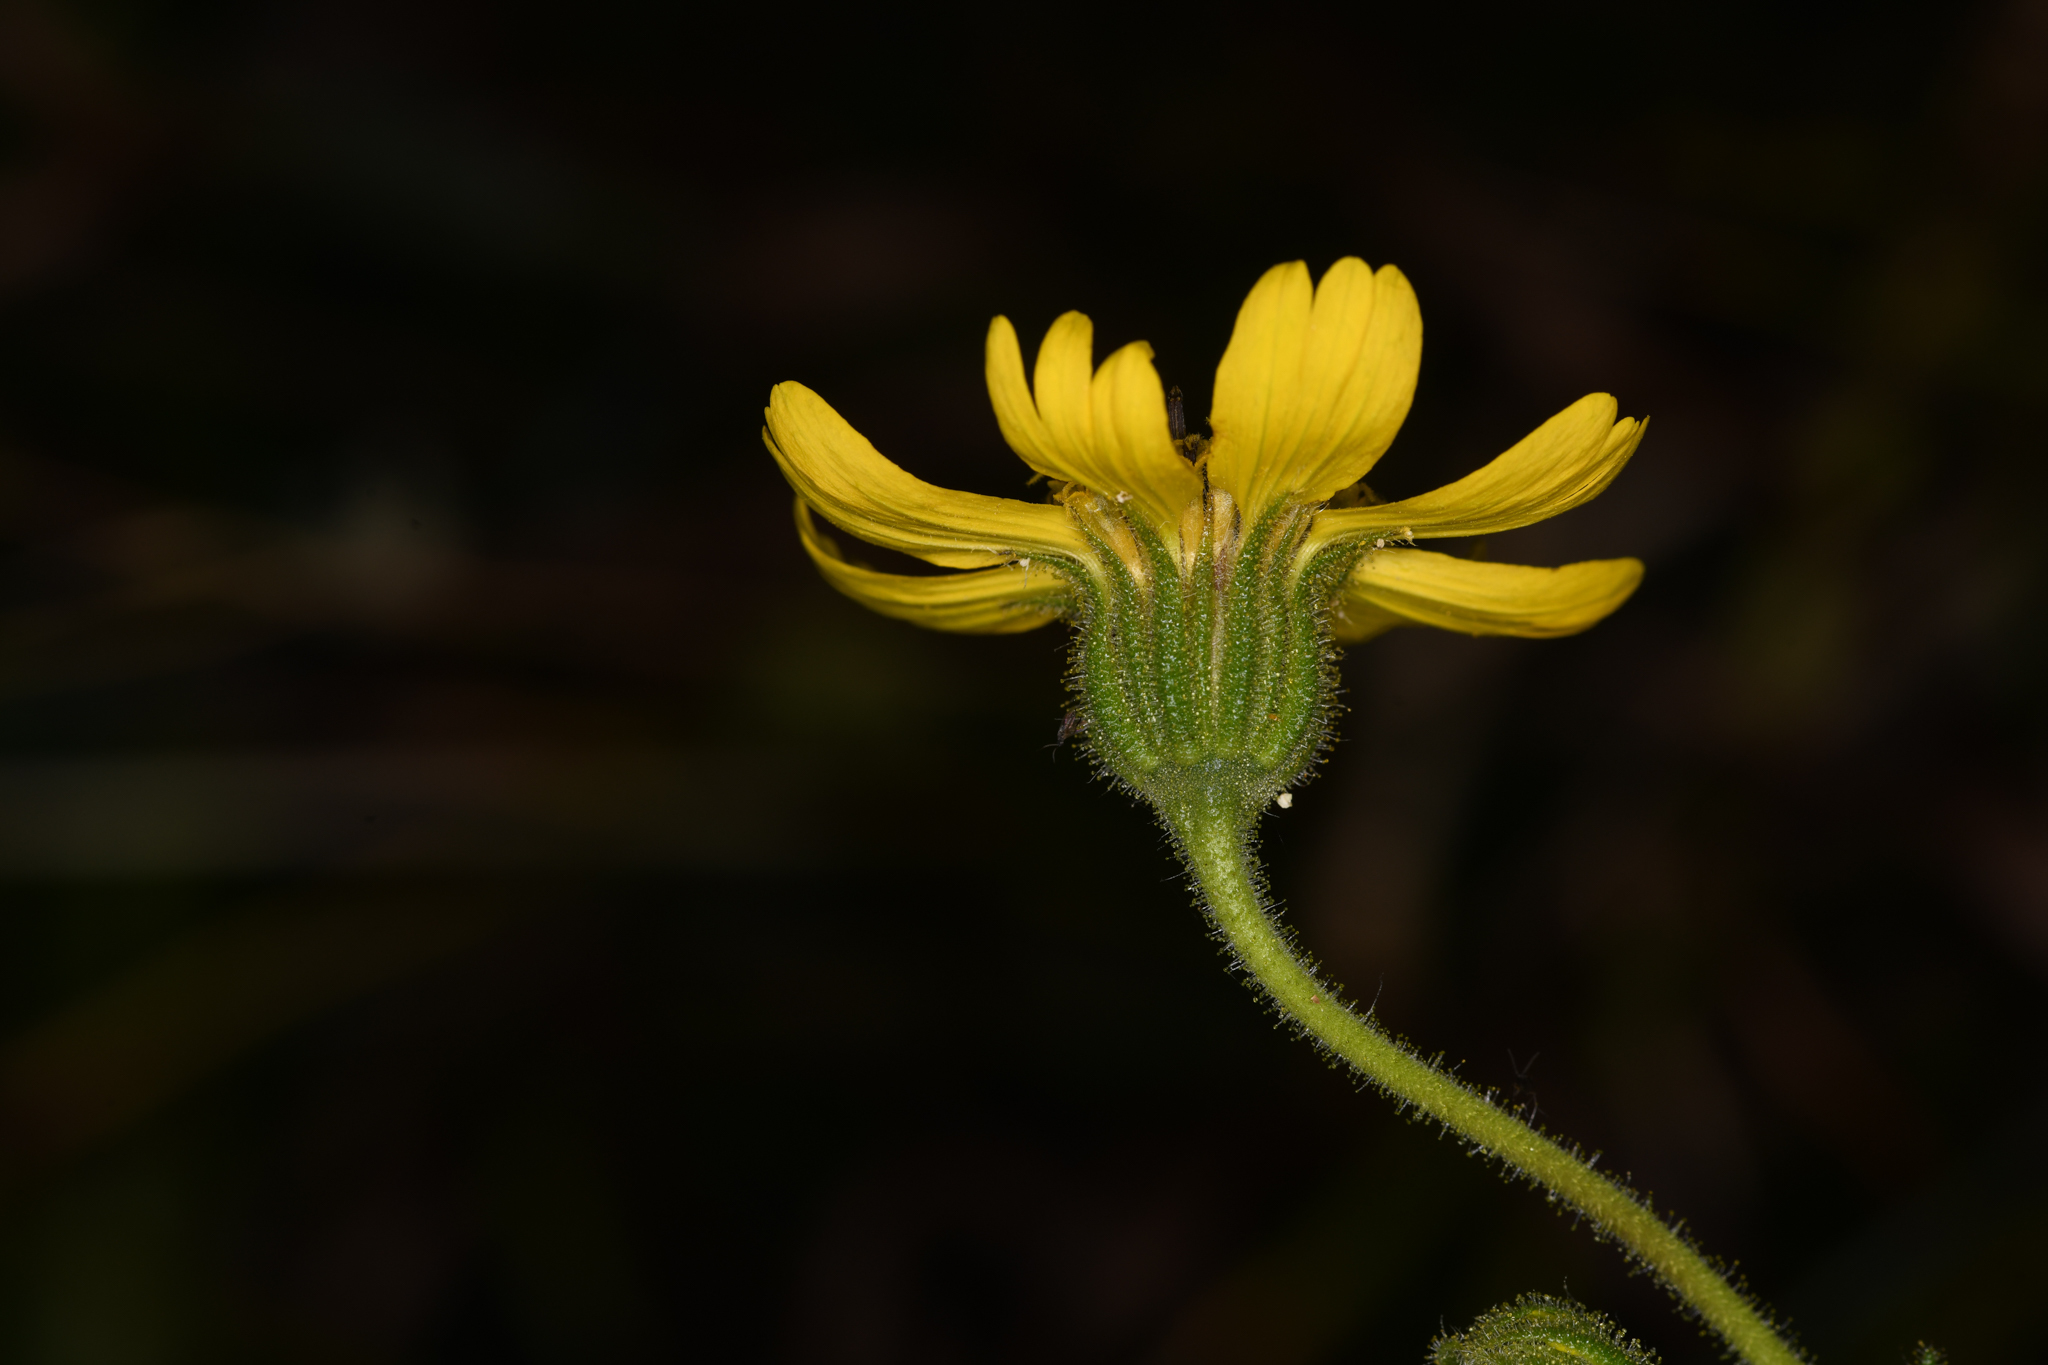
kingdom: Plantae
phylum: Tracheophyta
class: Magnoliopsida
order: Asterales
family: Asteraceae
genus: Kyhosia
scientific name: Kyhosia bolanderi
